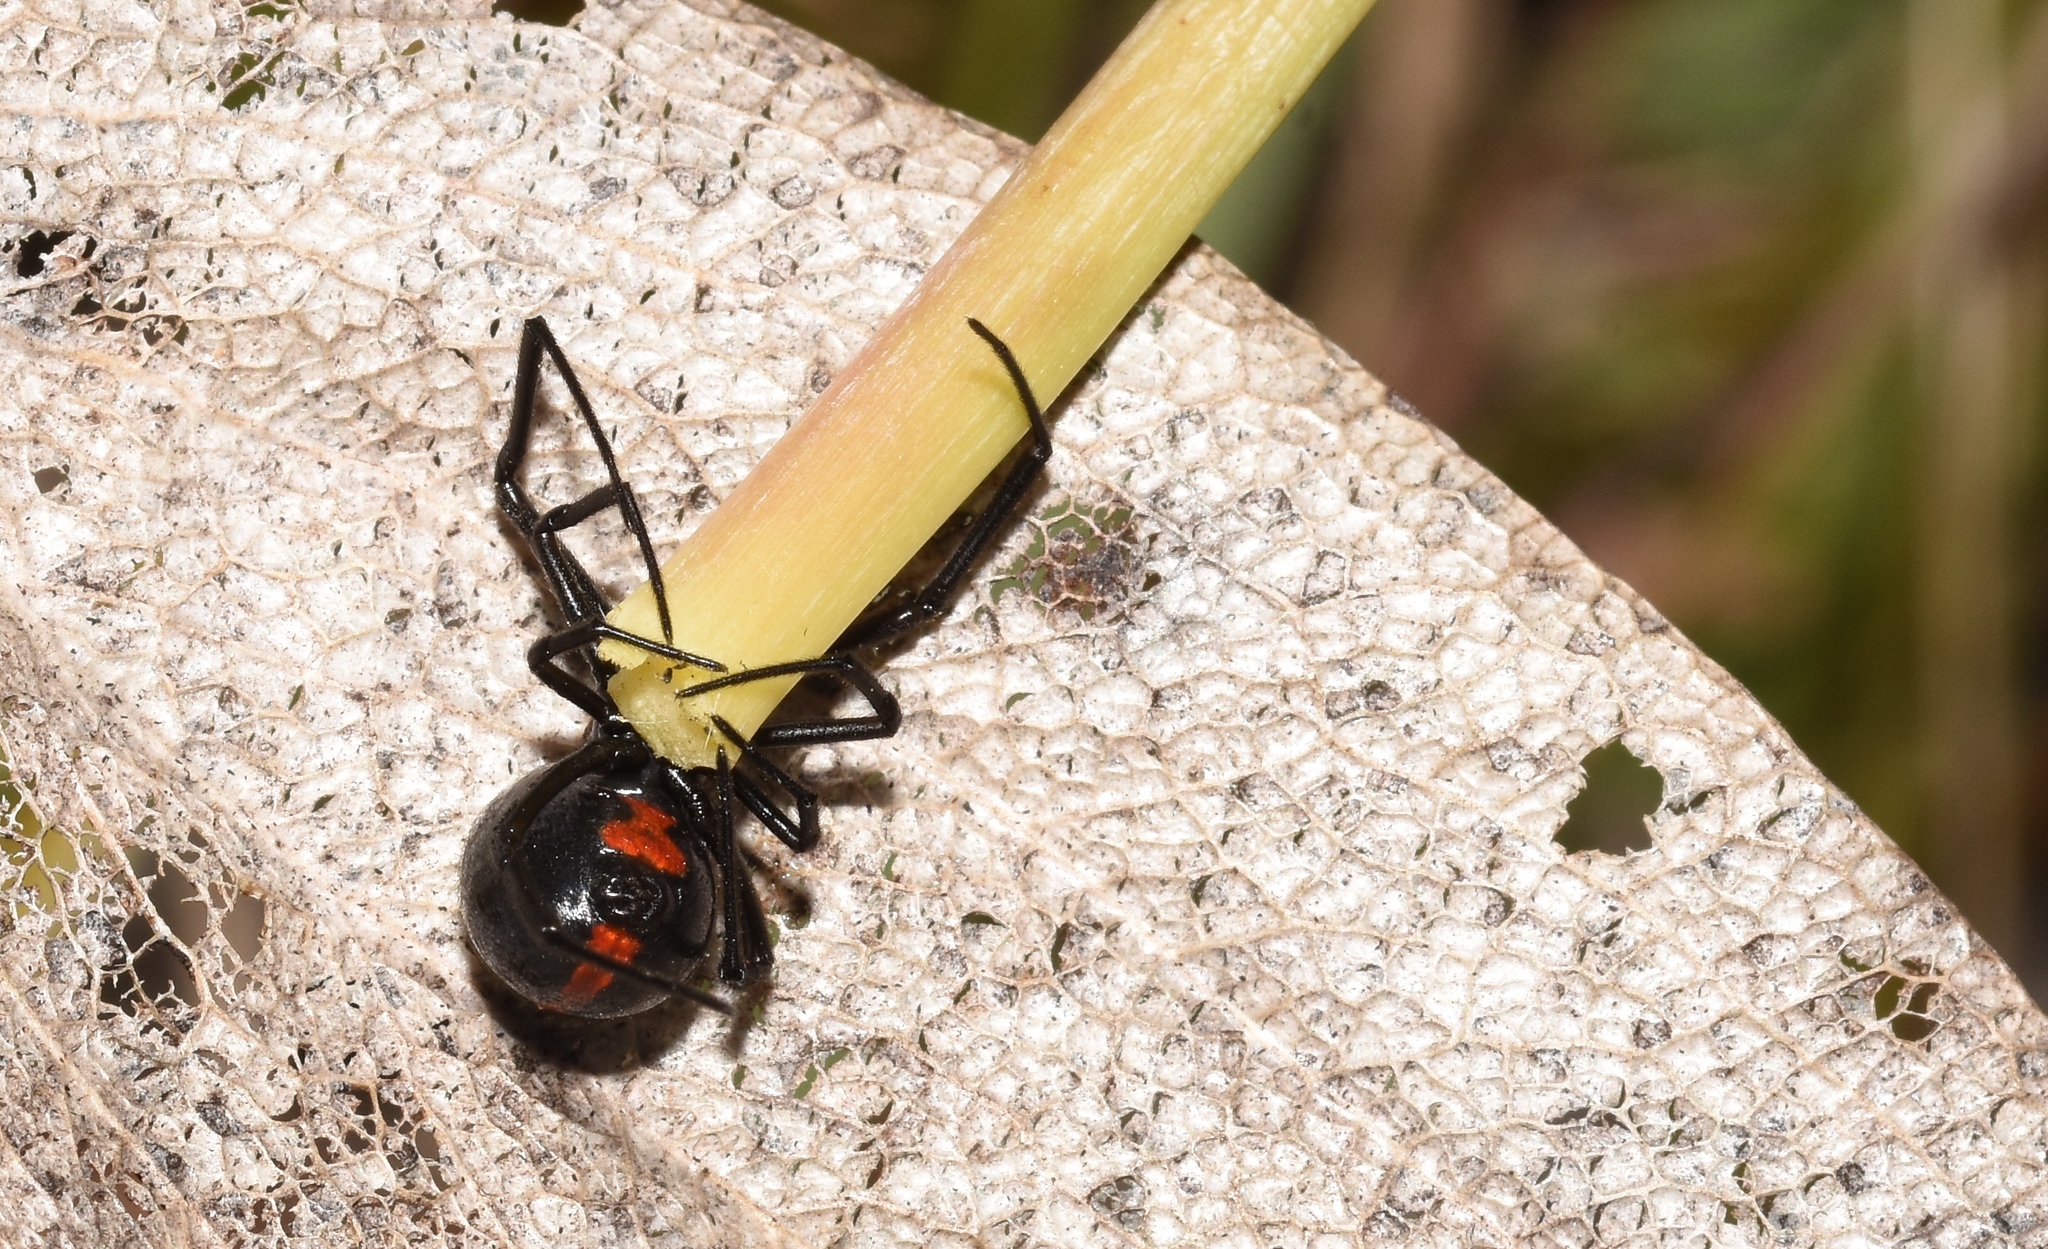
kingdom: Animalia
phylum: Arthropoda
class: Arachnida
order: Araneae
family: Theridiidae
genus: Latrodectus
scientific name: Latrodectus mactans
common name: Cobweb spiders
